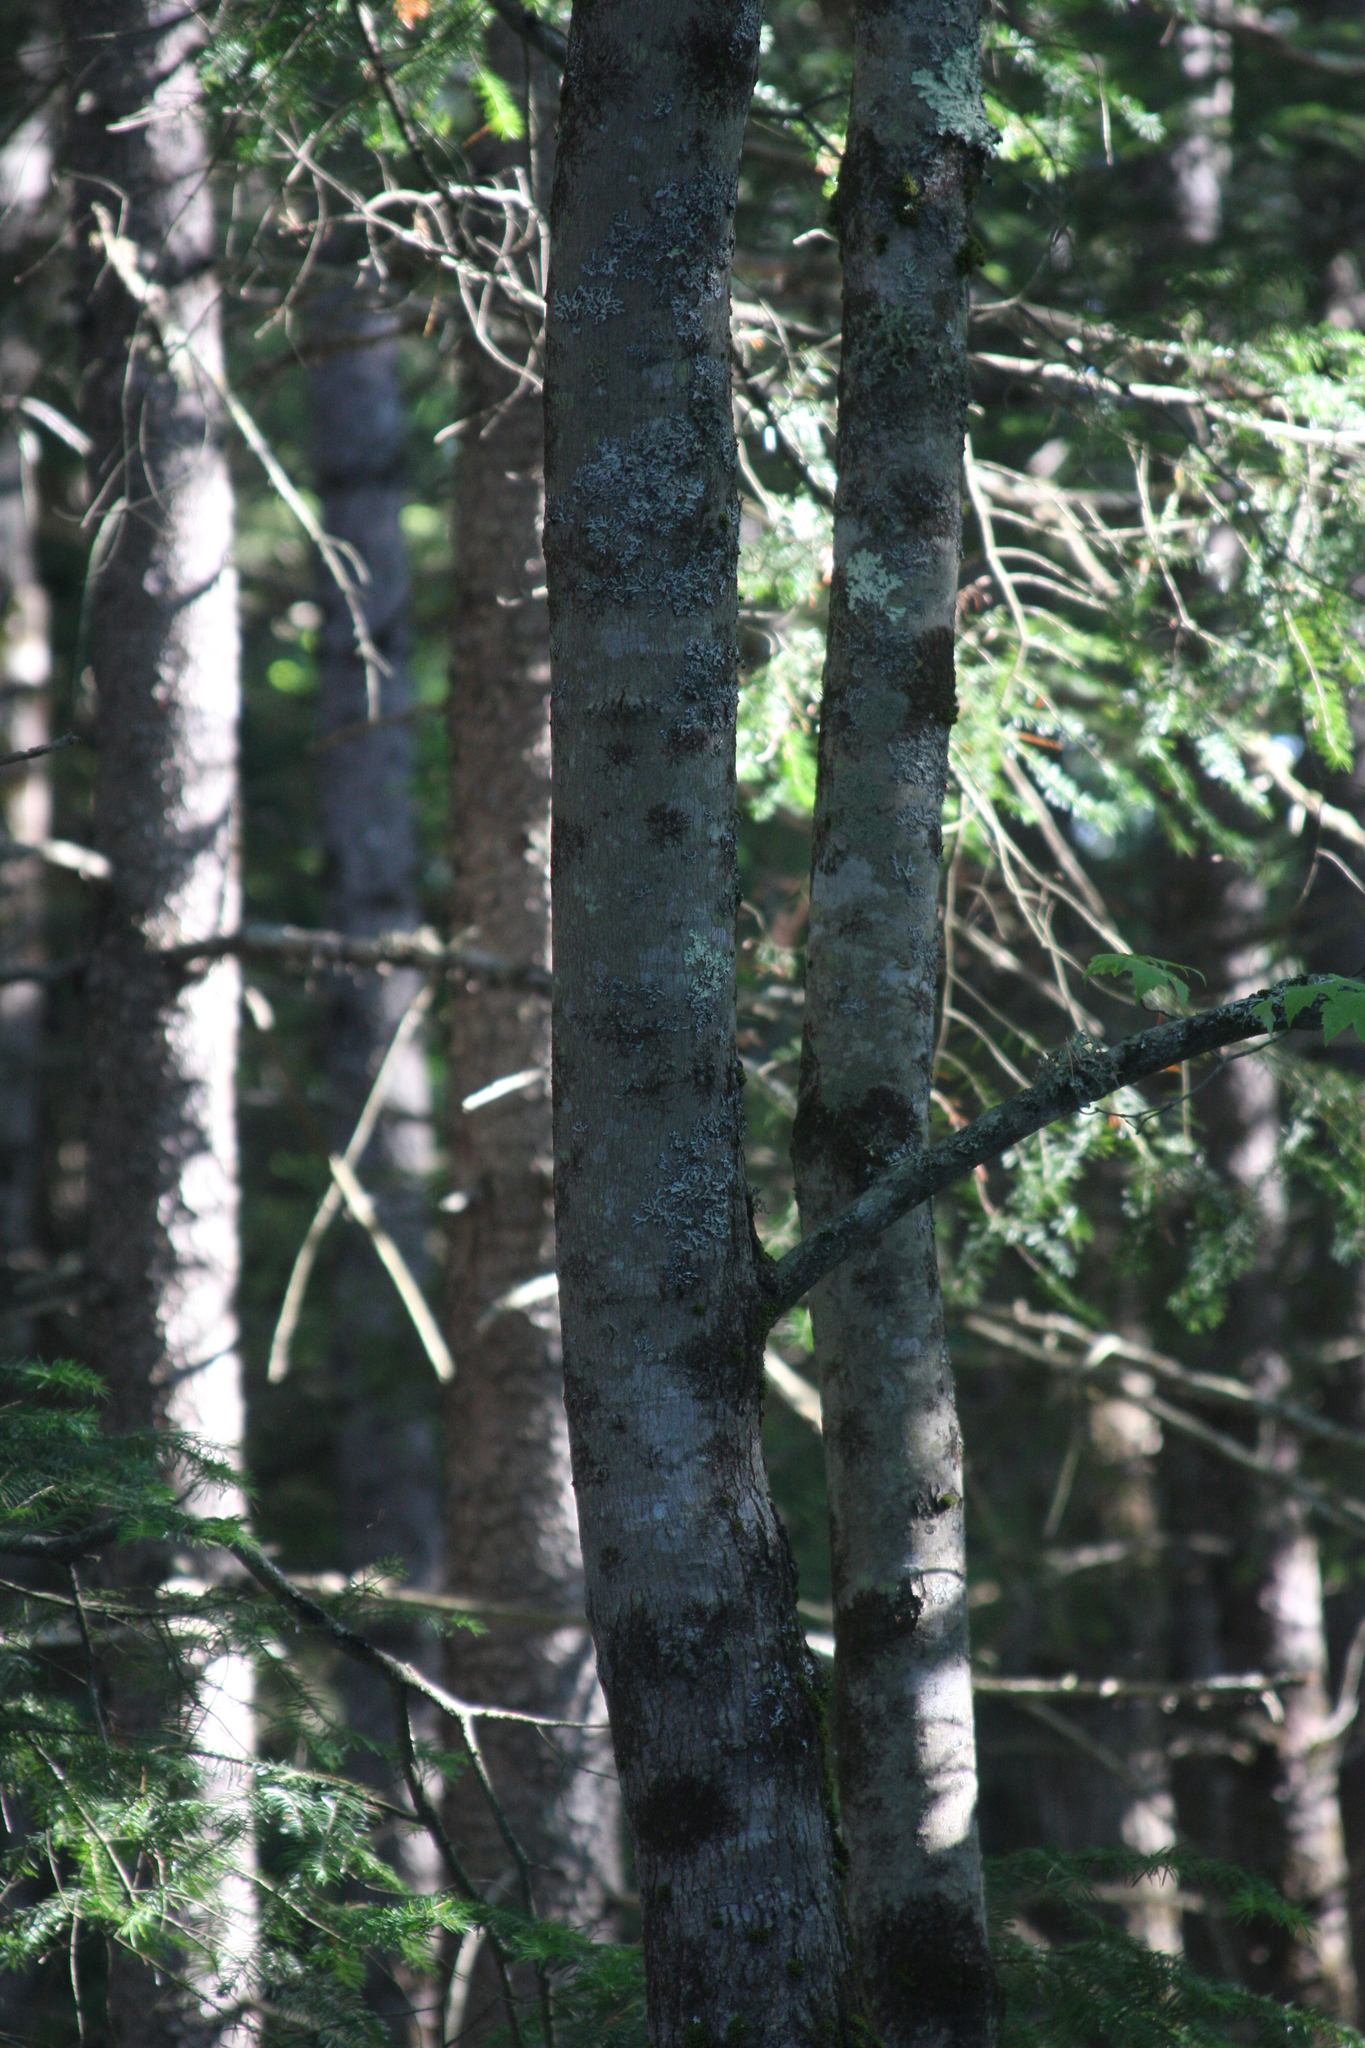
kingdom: Plantae
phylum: Tracheophyta
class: Magnoliopsida
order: Sapindales
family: Sapindaceae
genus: Acer
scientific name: Acer rubrum
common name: Red maple
